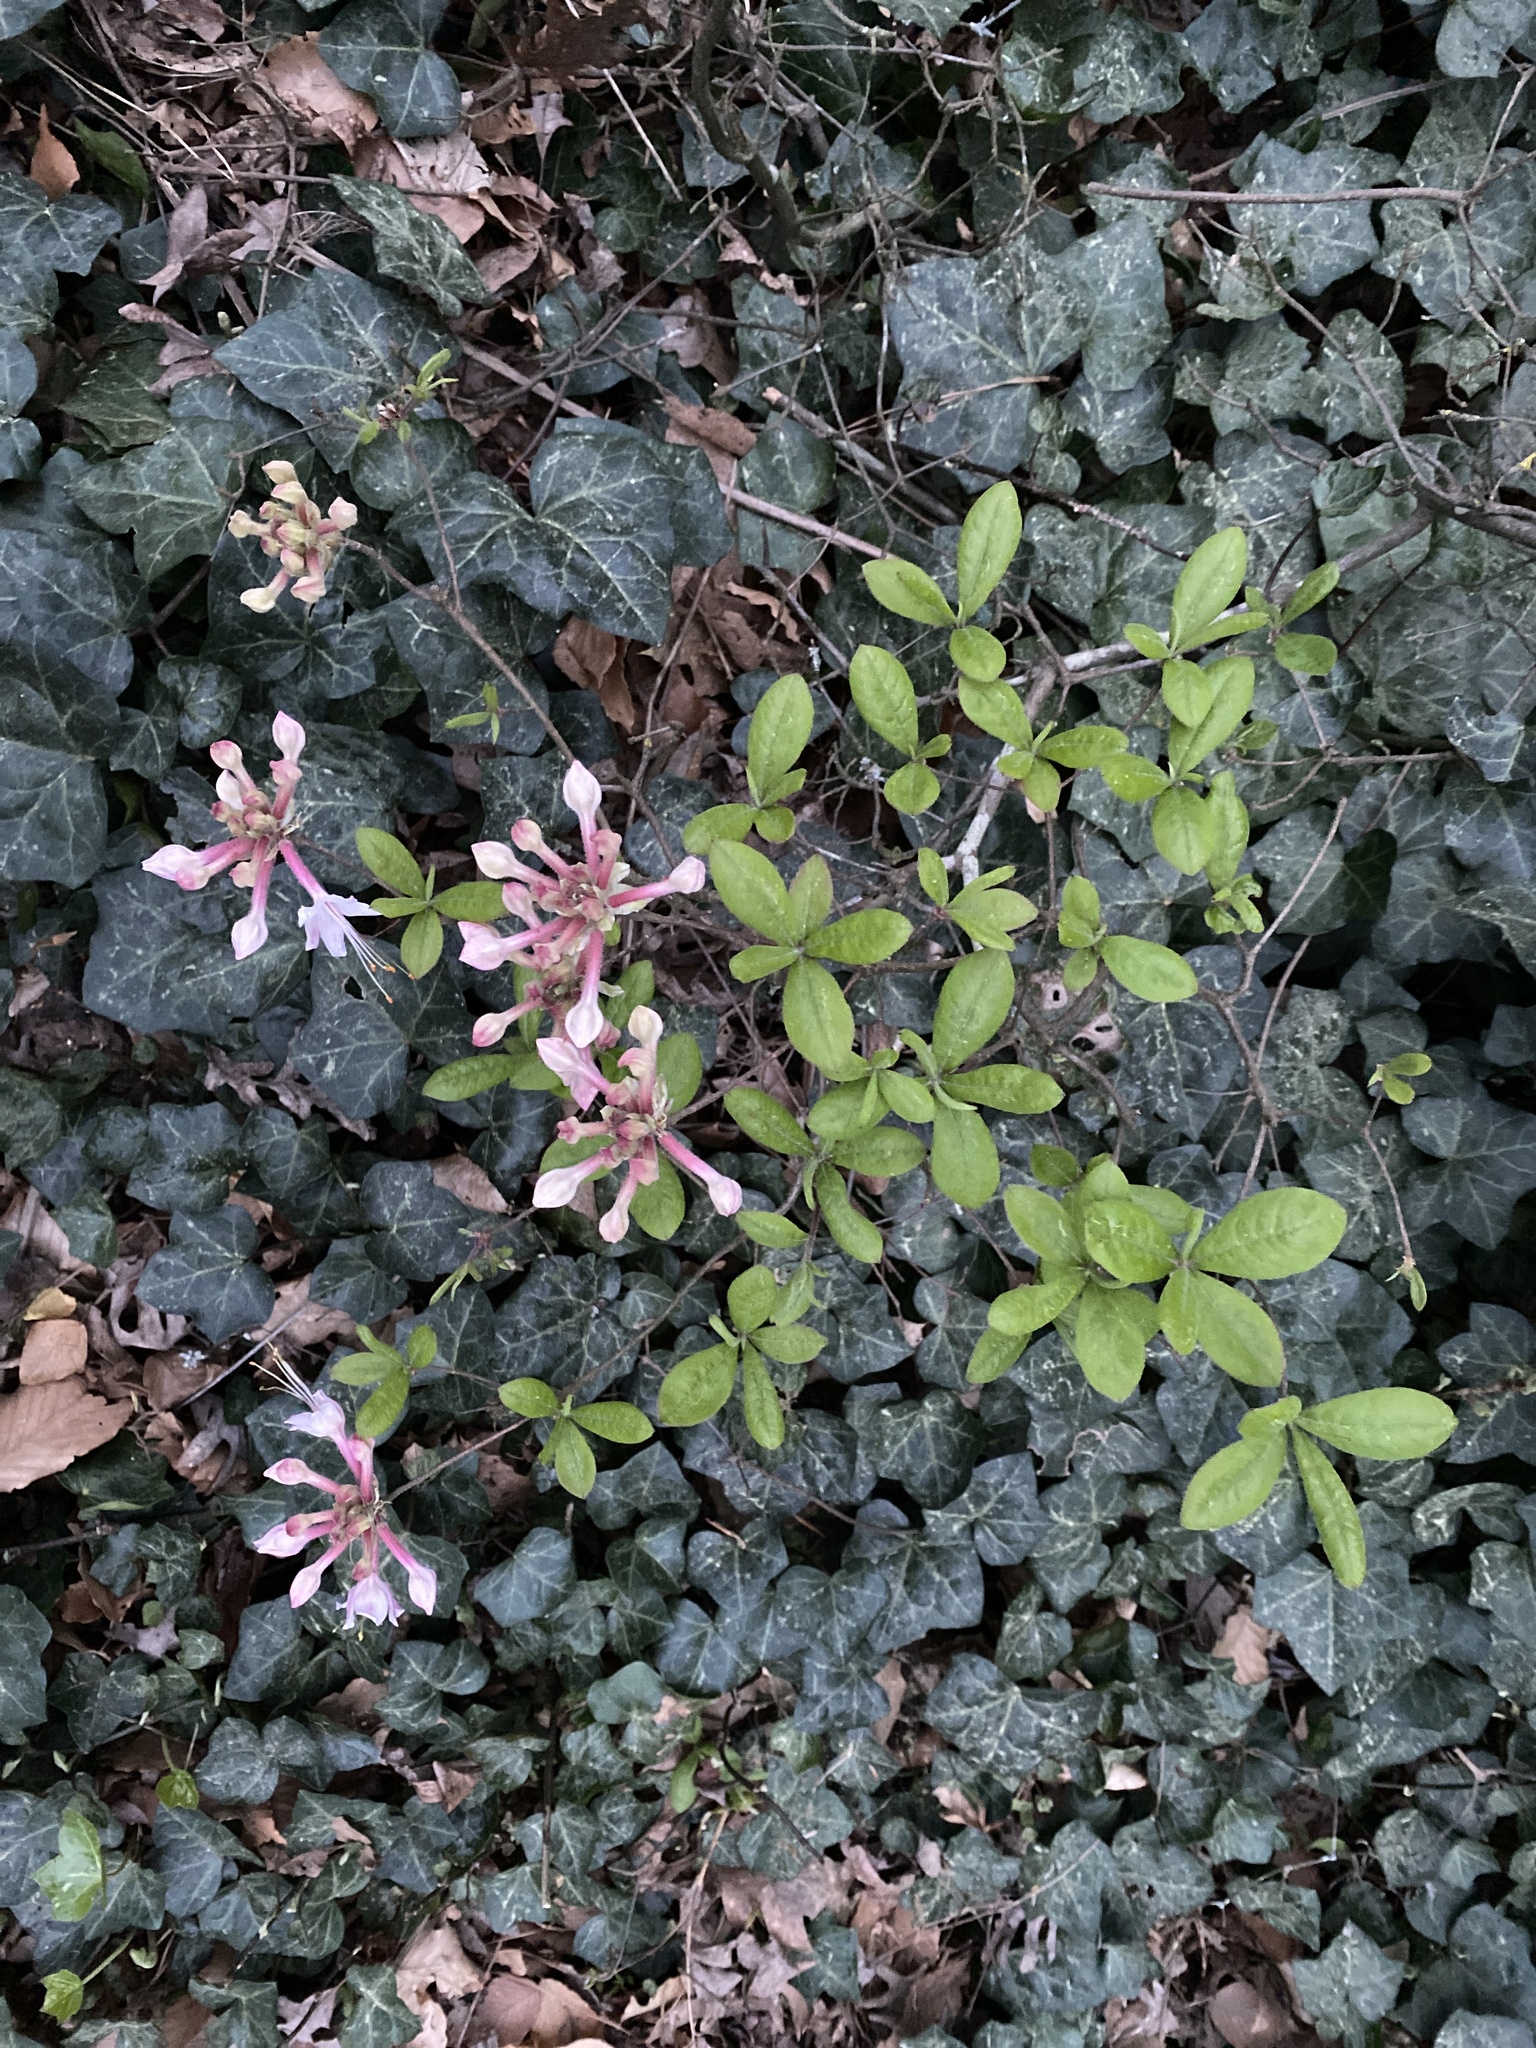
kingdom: Plantae
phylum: Tracheophyta
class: Magnoliopsida
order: Ericales
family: Ericaceae
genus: Rhododendron
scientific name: Rhododendron canescens
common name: Mountain azalea
